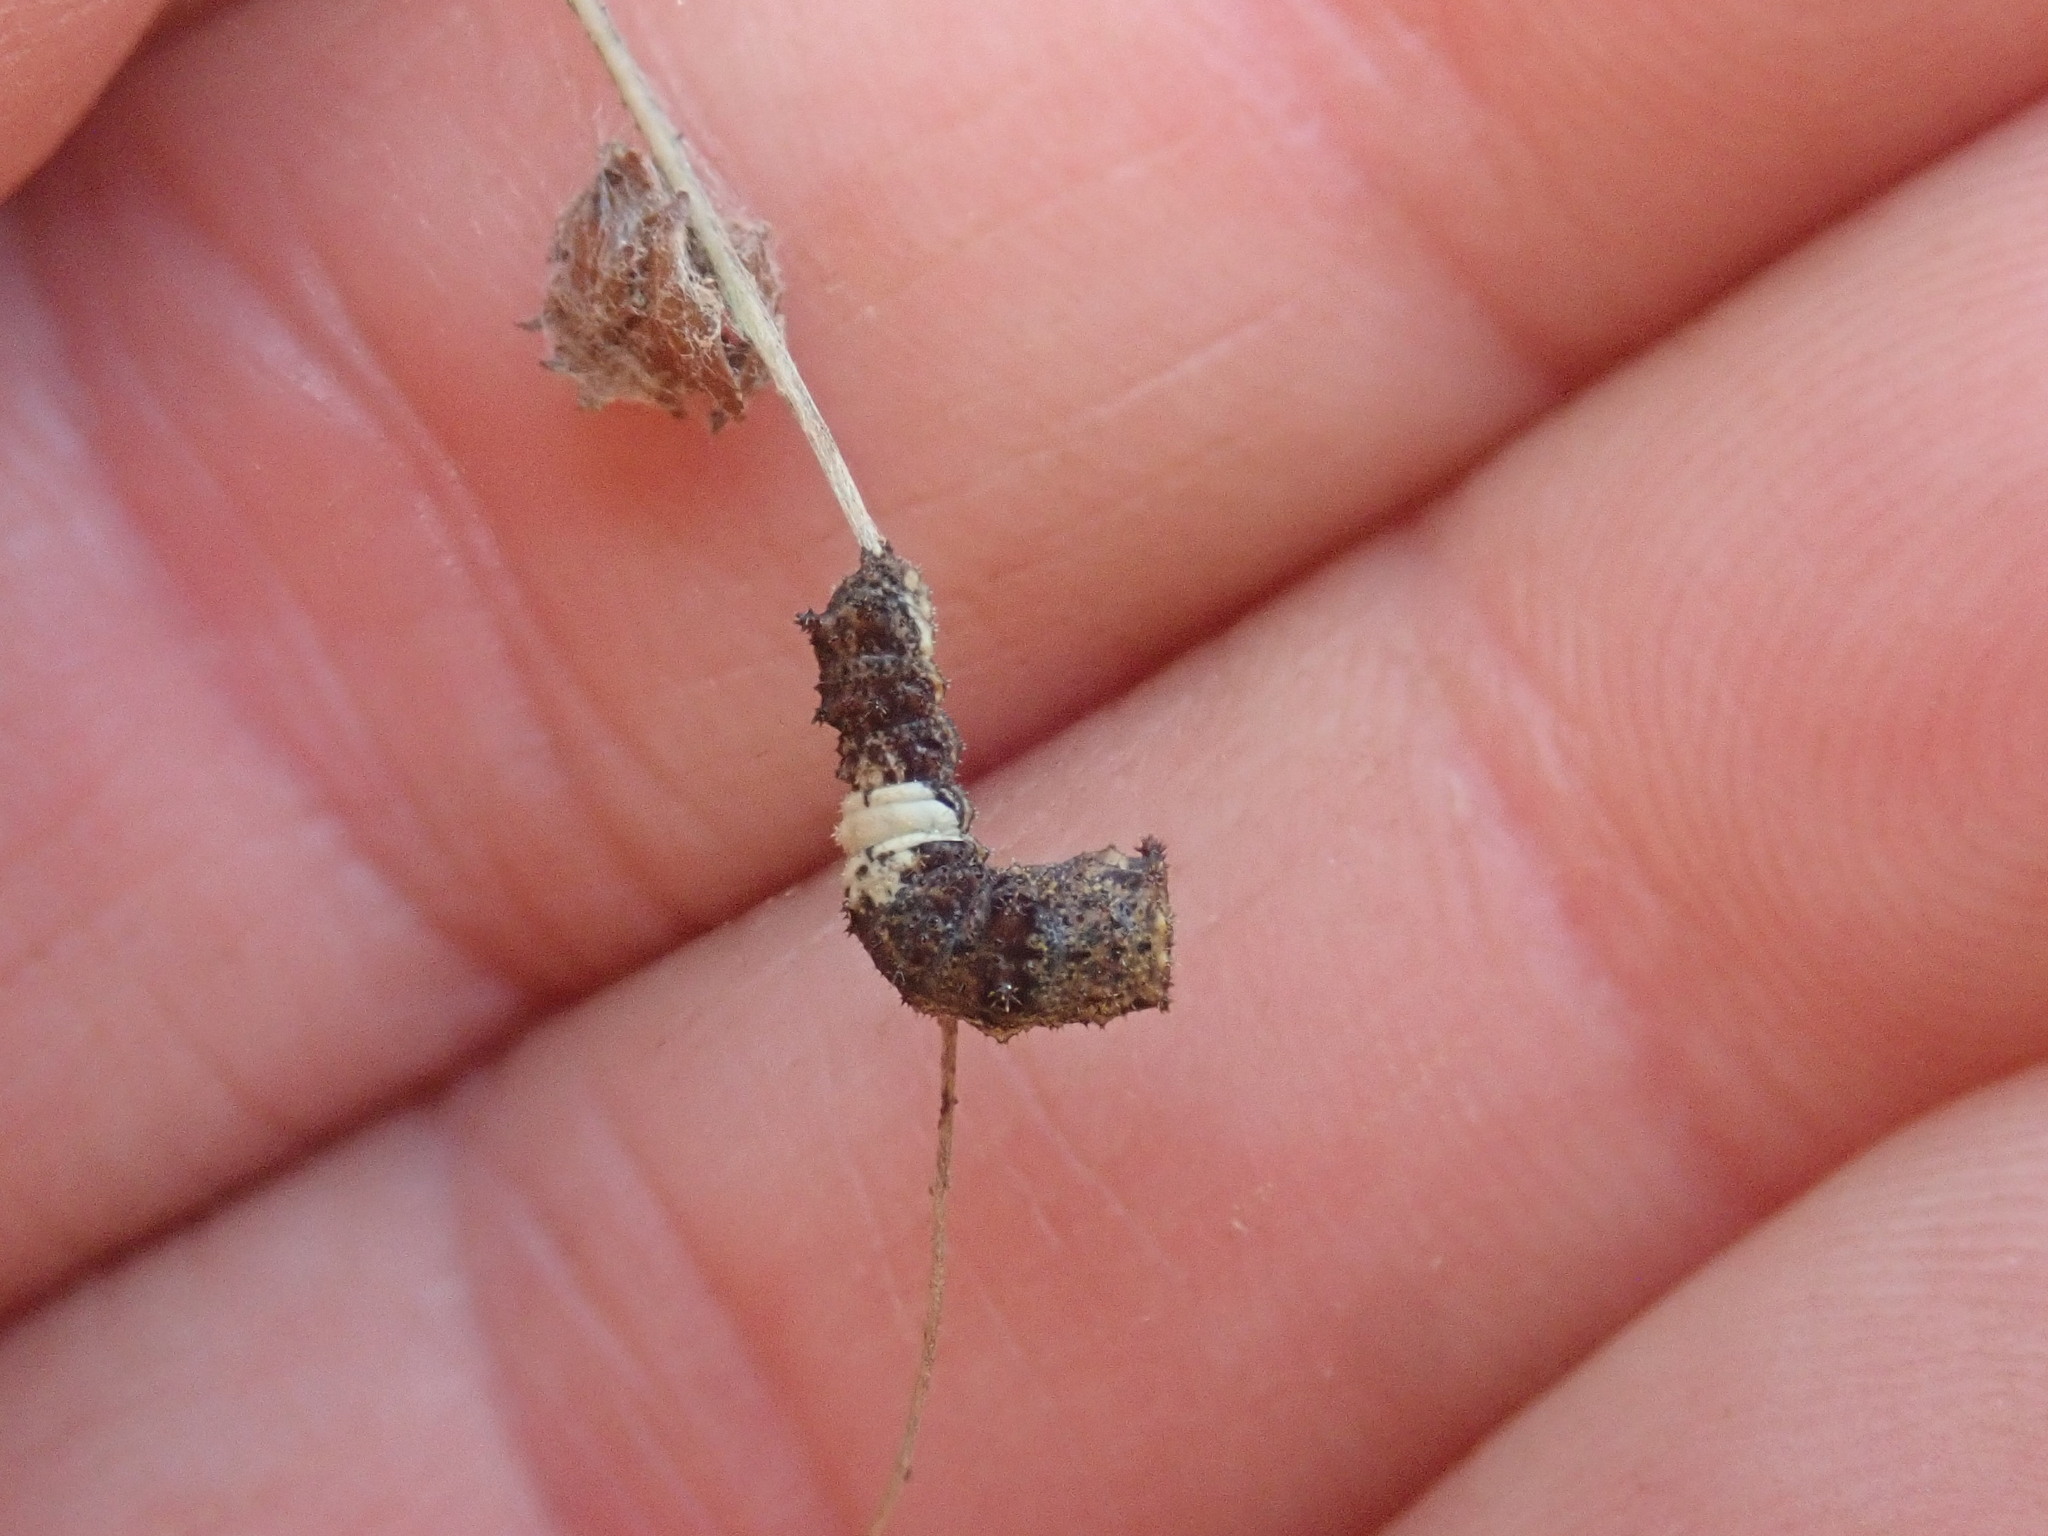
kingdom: Animalia
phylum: Arthropoda
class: Insecta
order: Lepidoptera
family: Nymphalidae
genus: Limenitis
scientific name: Limenitis archippus
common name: Viceroy
